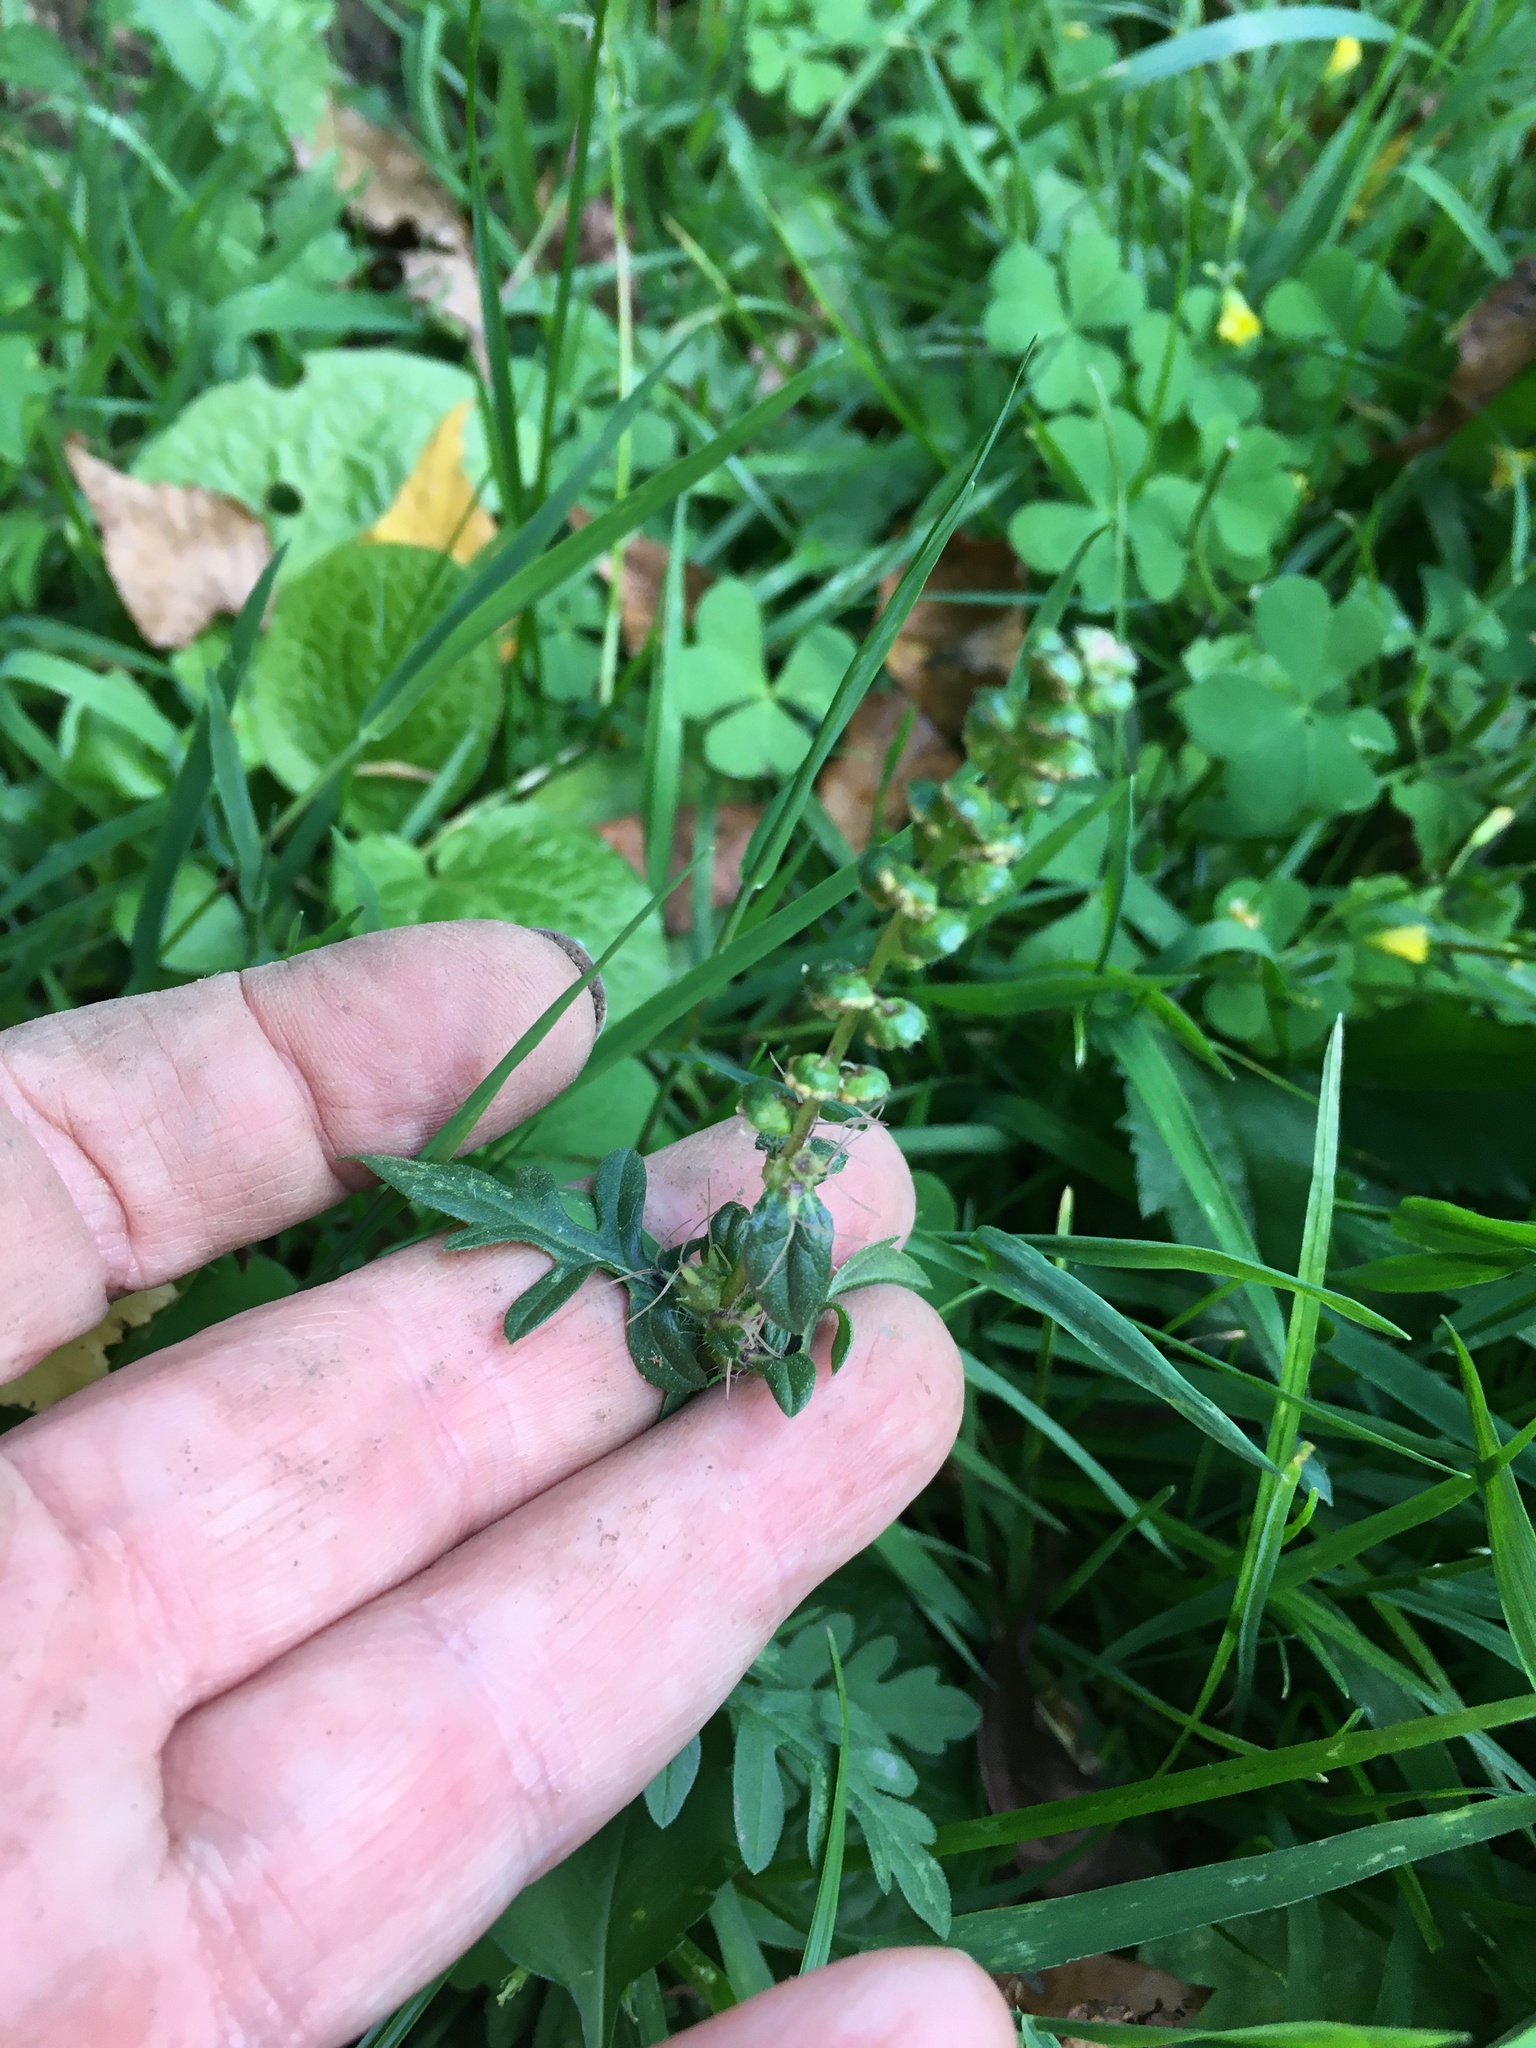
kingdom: Plantae
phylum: Tracheophyta
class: Magnoliopsida
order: Asterales
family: Asteraceae
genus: Ambrosia
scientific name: Ambrosia artemisiifolia
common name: Annual ragweed
